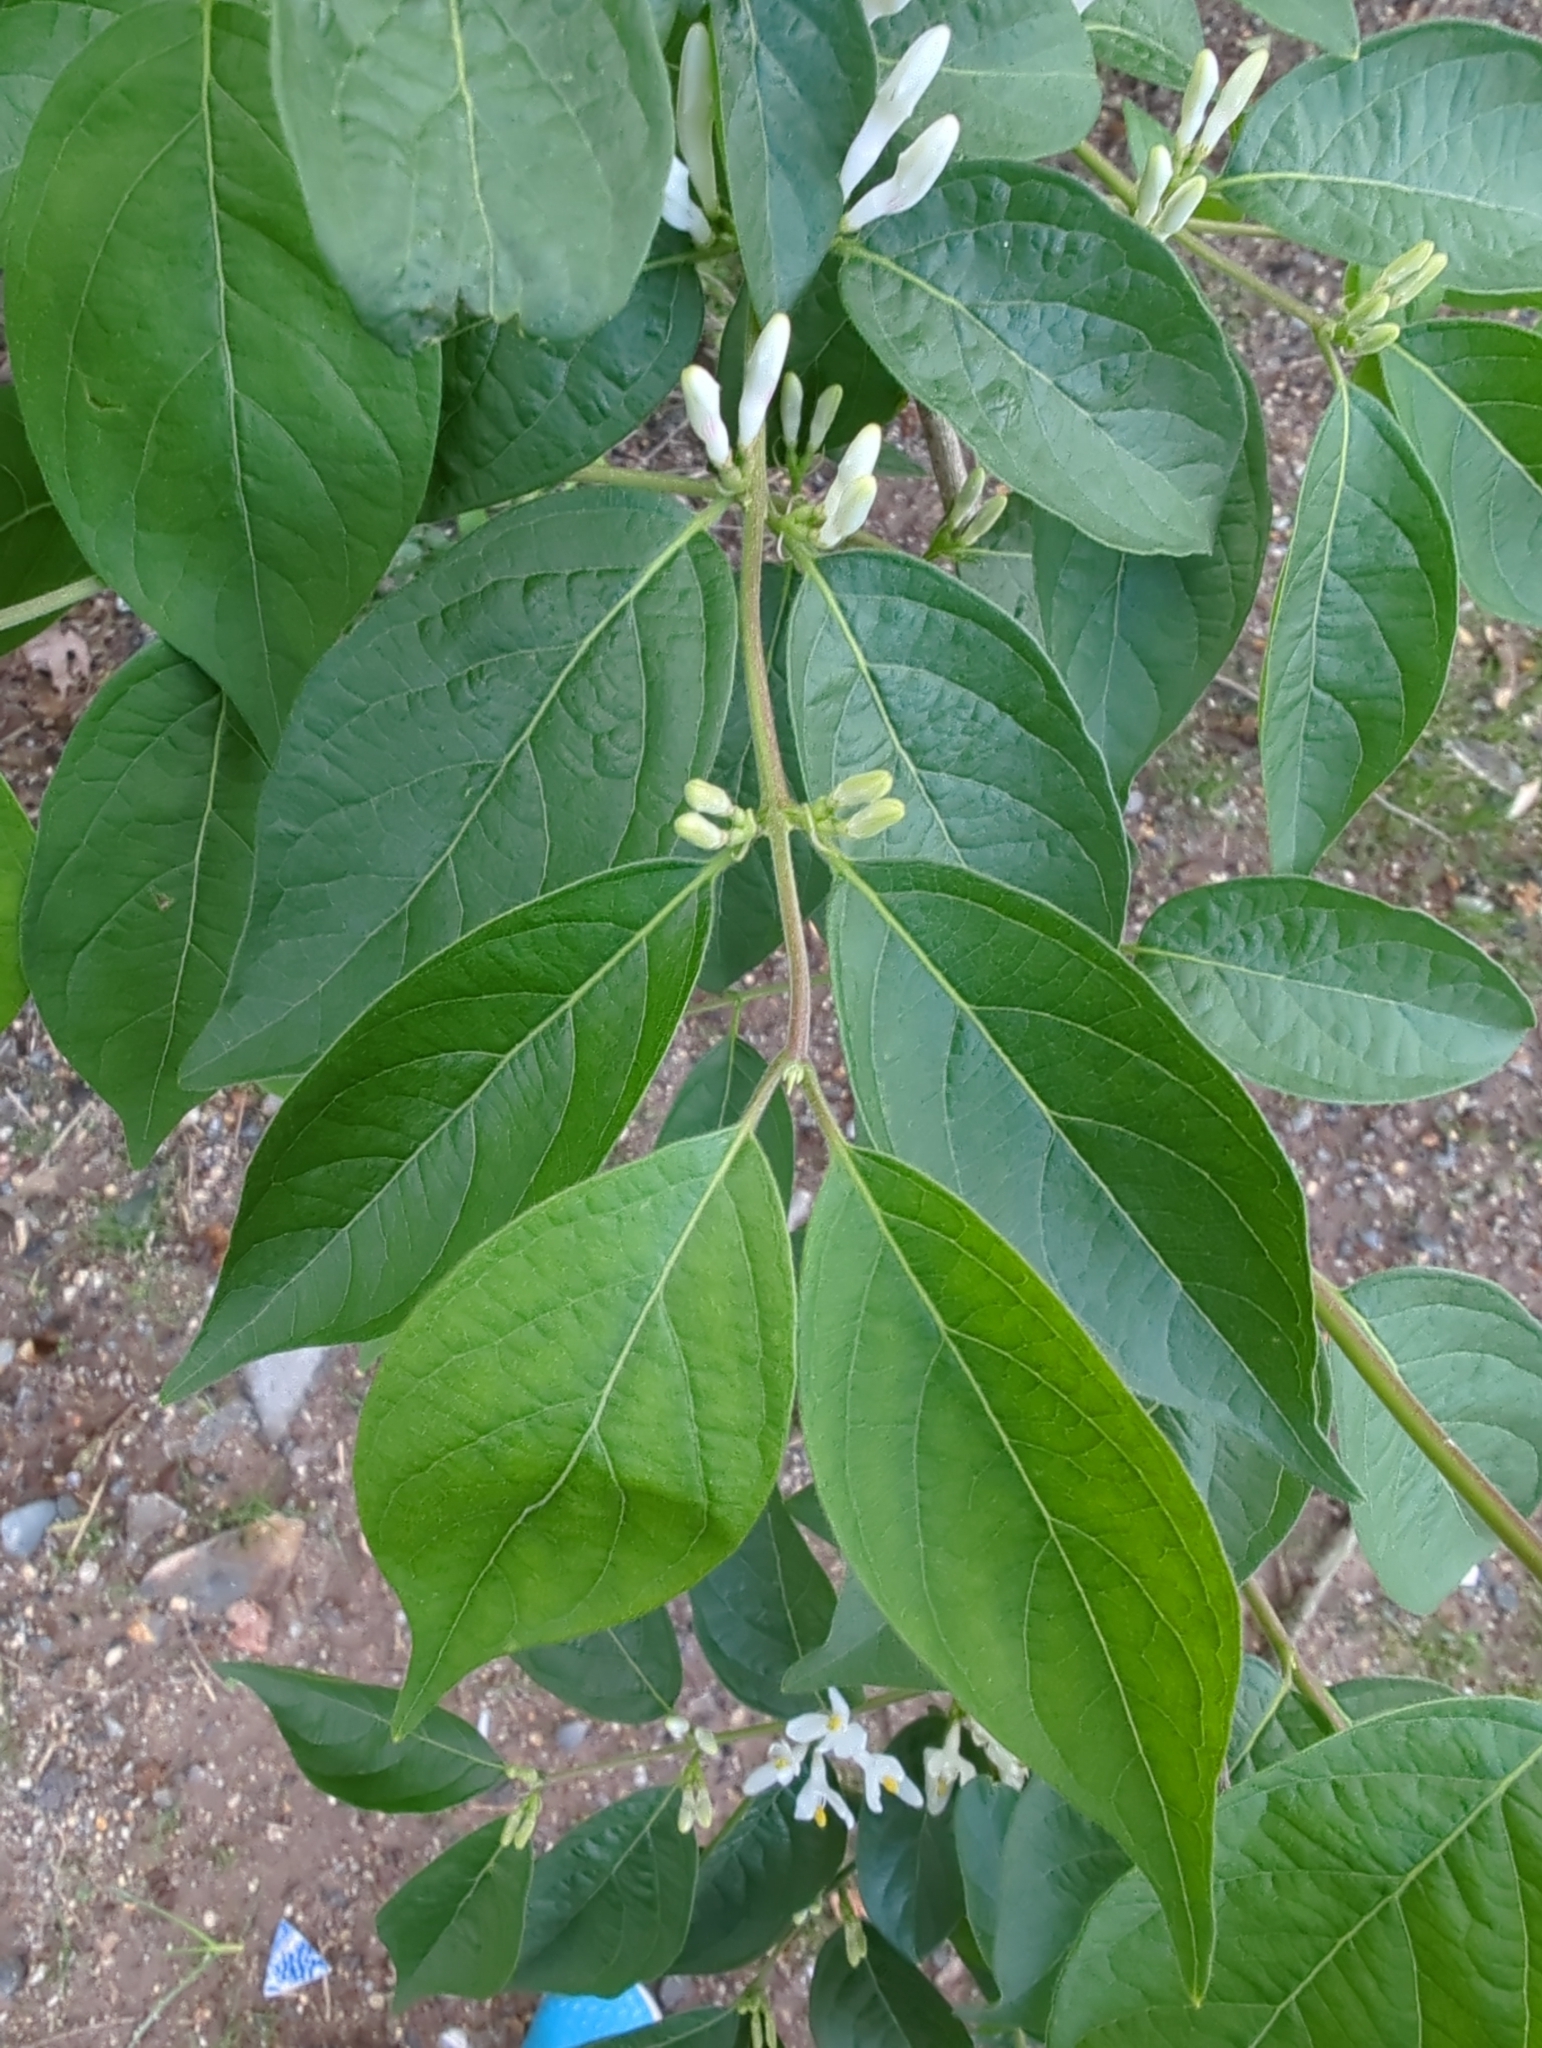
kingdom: Plantae
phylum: Tracheophyta
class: Magnoliopsida
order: Dipsacales
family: Caprifoliaceae
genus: Lonicera
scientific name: Lonicera maackii
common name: Amur honeysuckle
